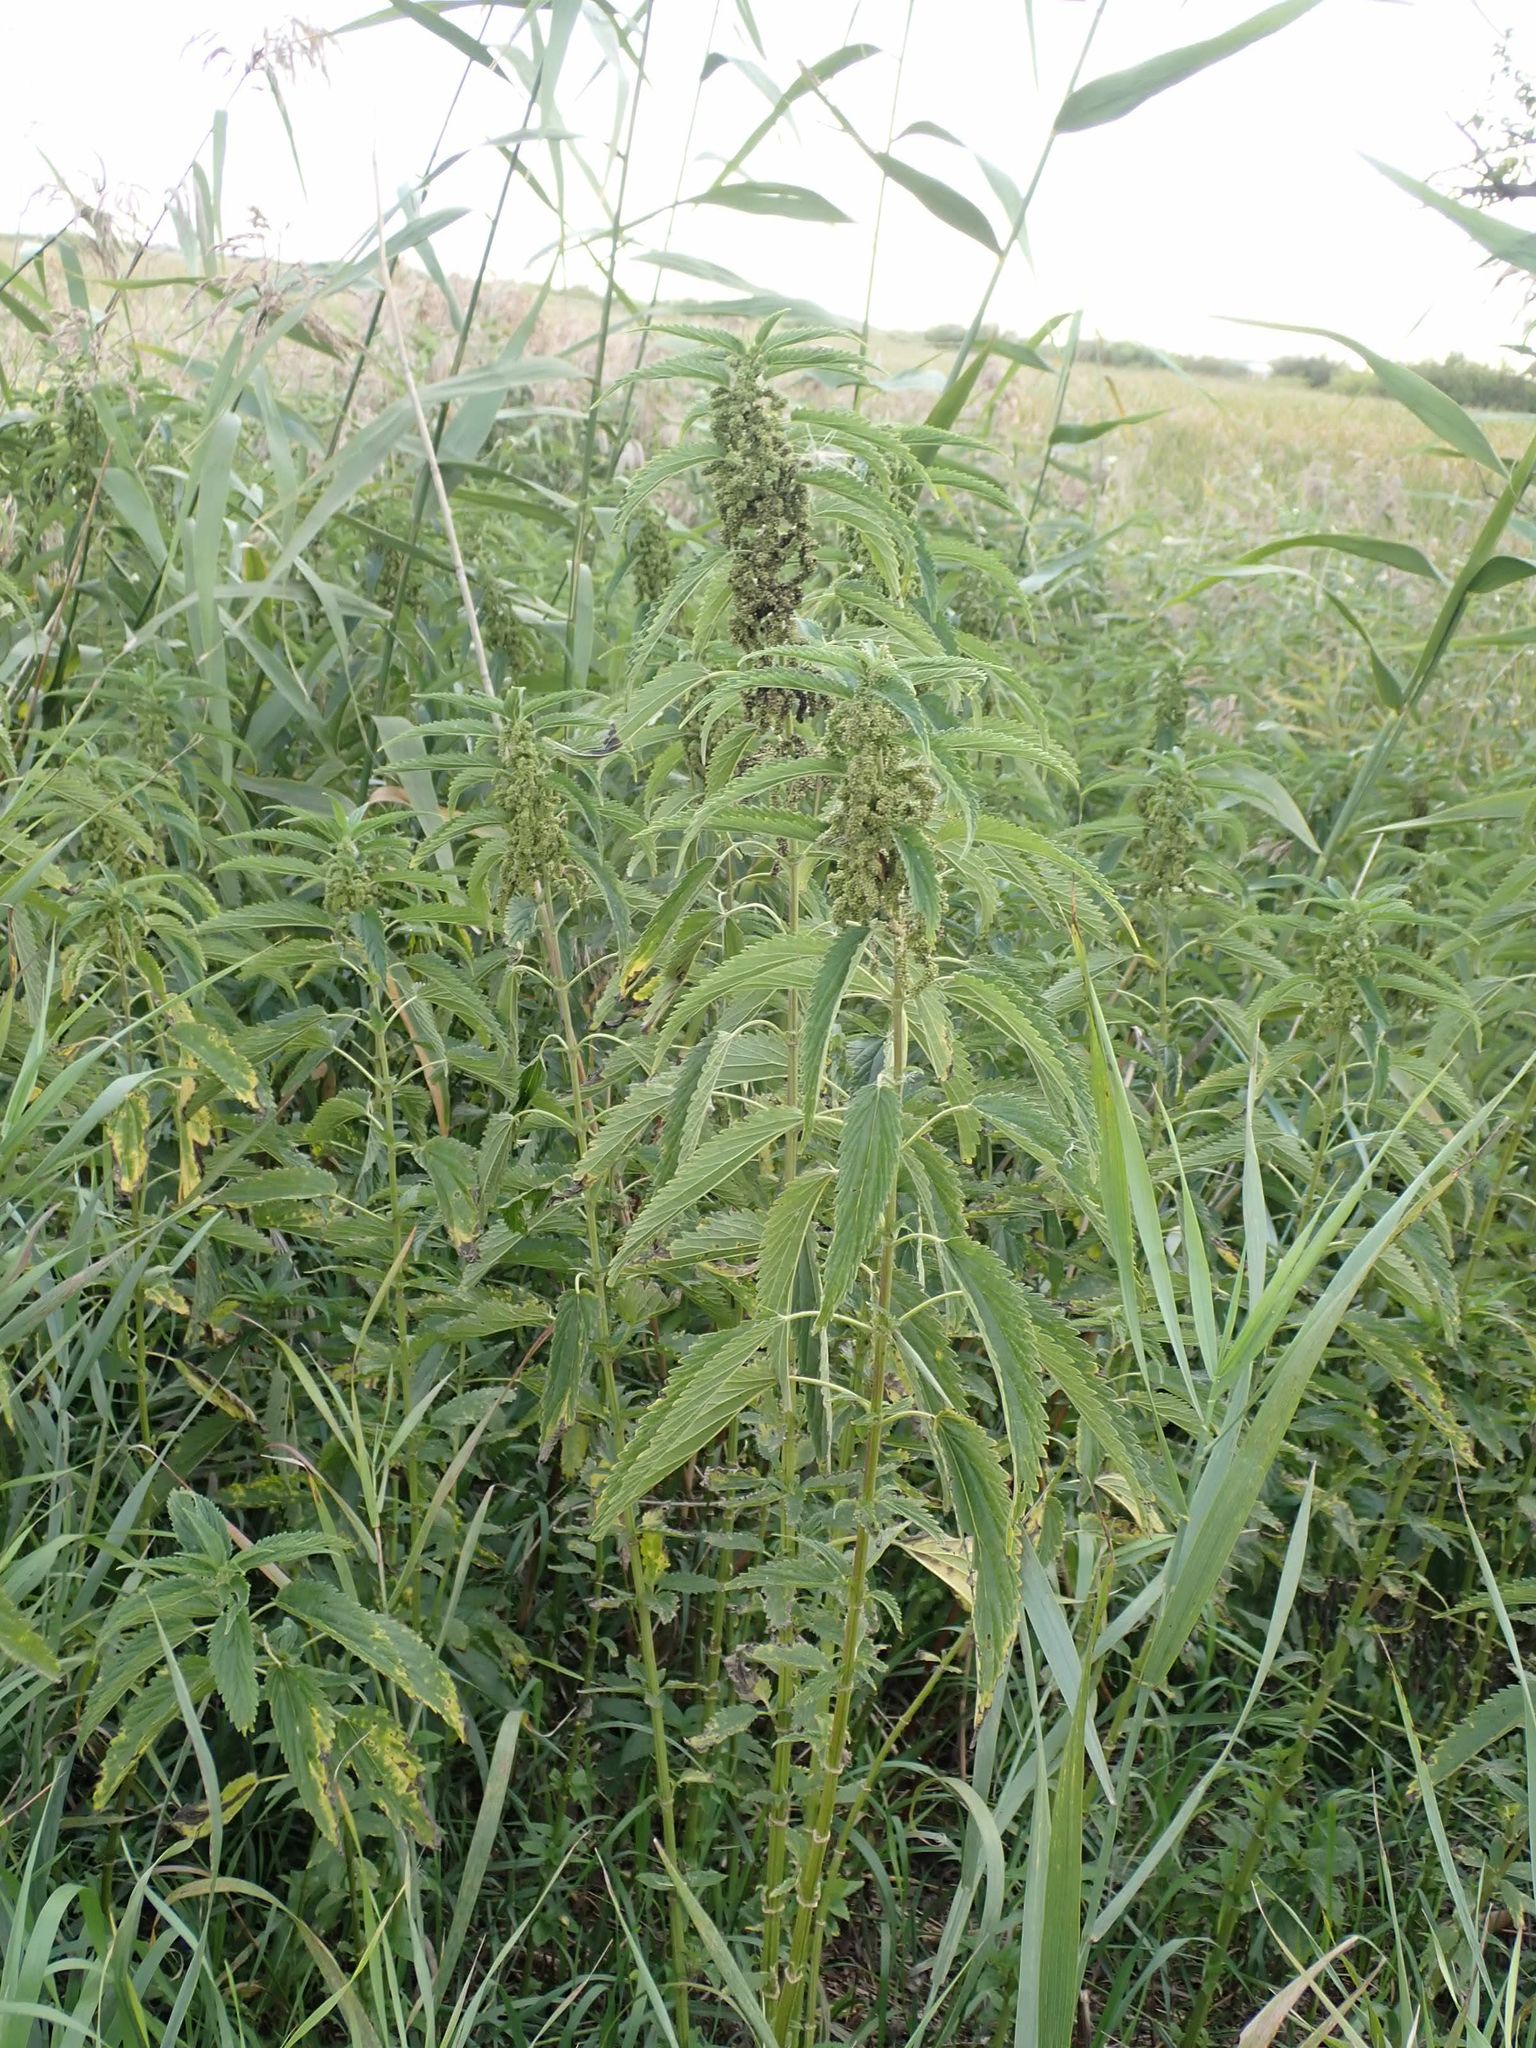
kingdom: Plantae
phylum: Tracheophyta
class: Magnoliopsida
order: Rosales
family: Urticaceae
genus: Urtica
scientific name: Urtica gracilis
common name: Slender stinging nettle
